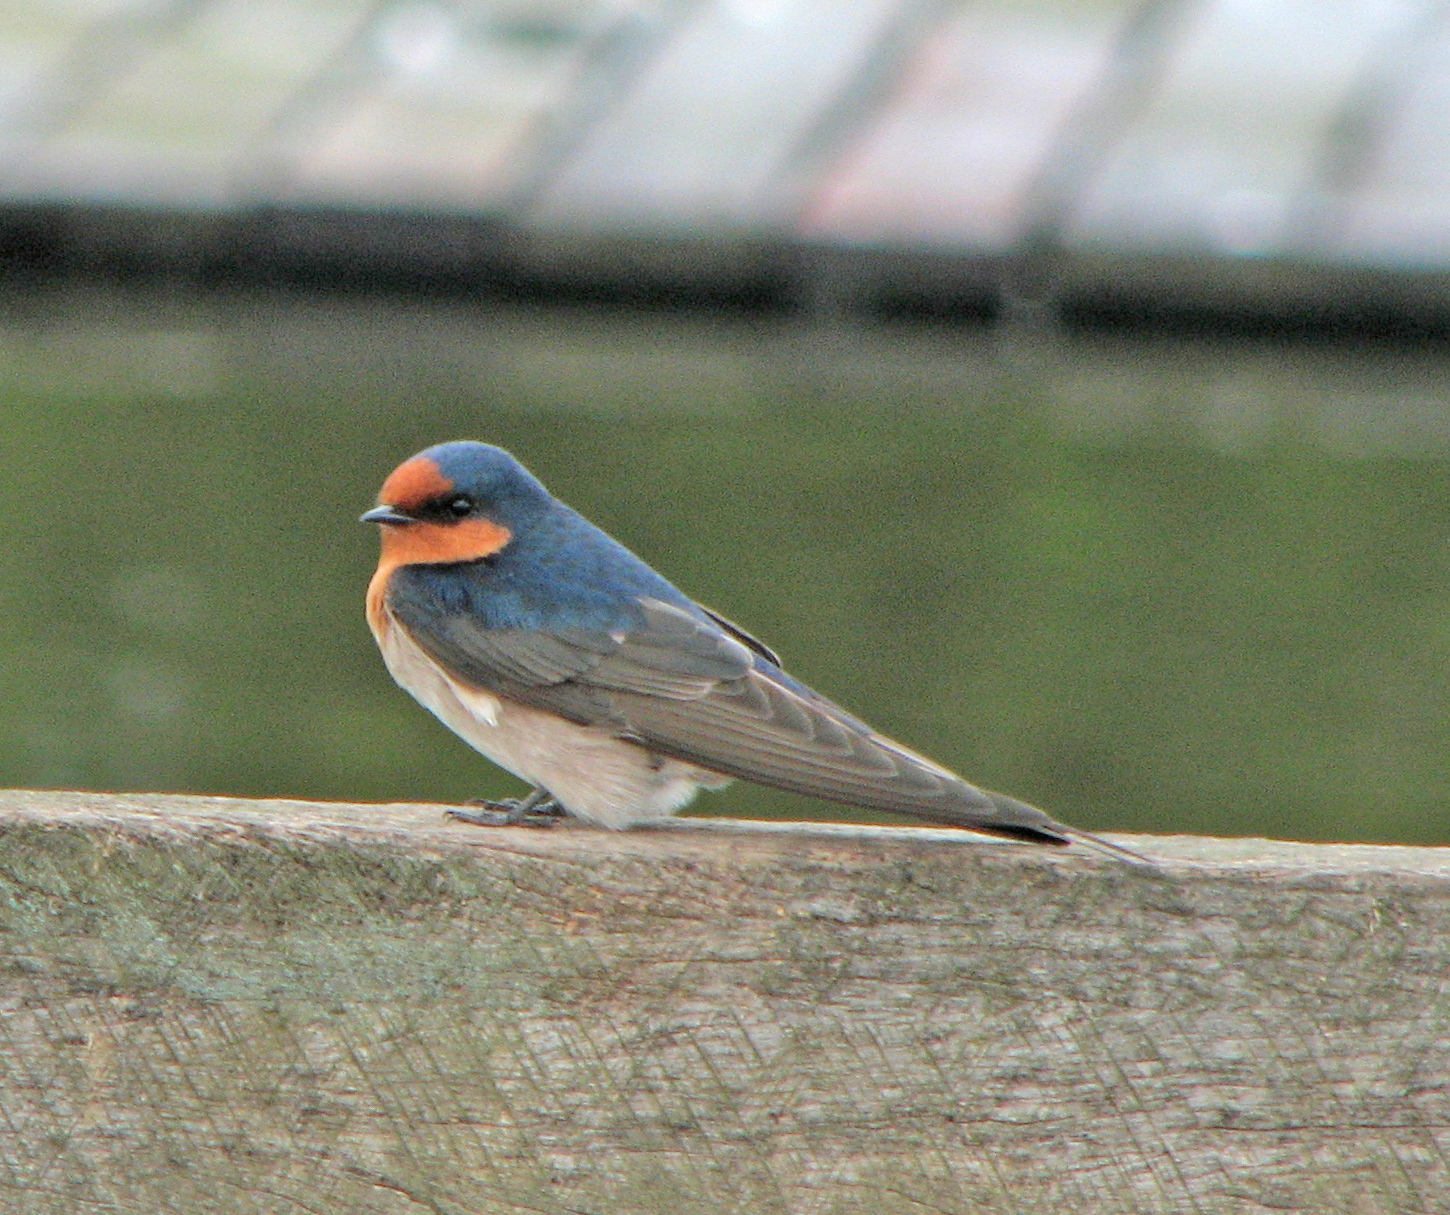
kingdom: Animalia
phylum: Chordata
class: Aves
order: Passeriformes
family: Hirundinidae
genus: Hirundo
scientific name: Hirundo neoxena
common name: Welcome swallow
